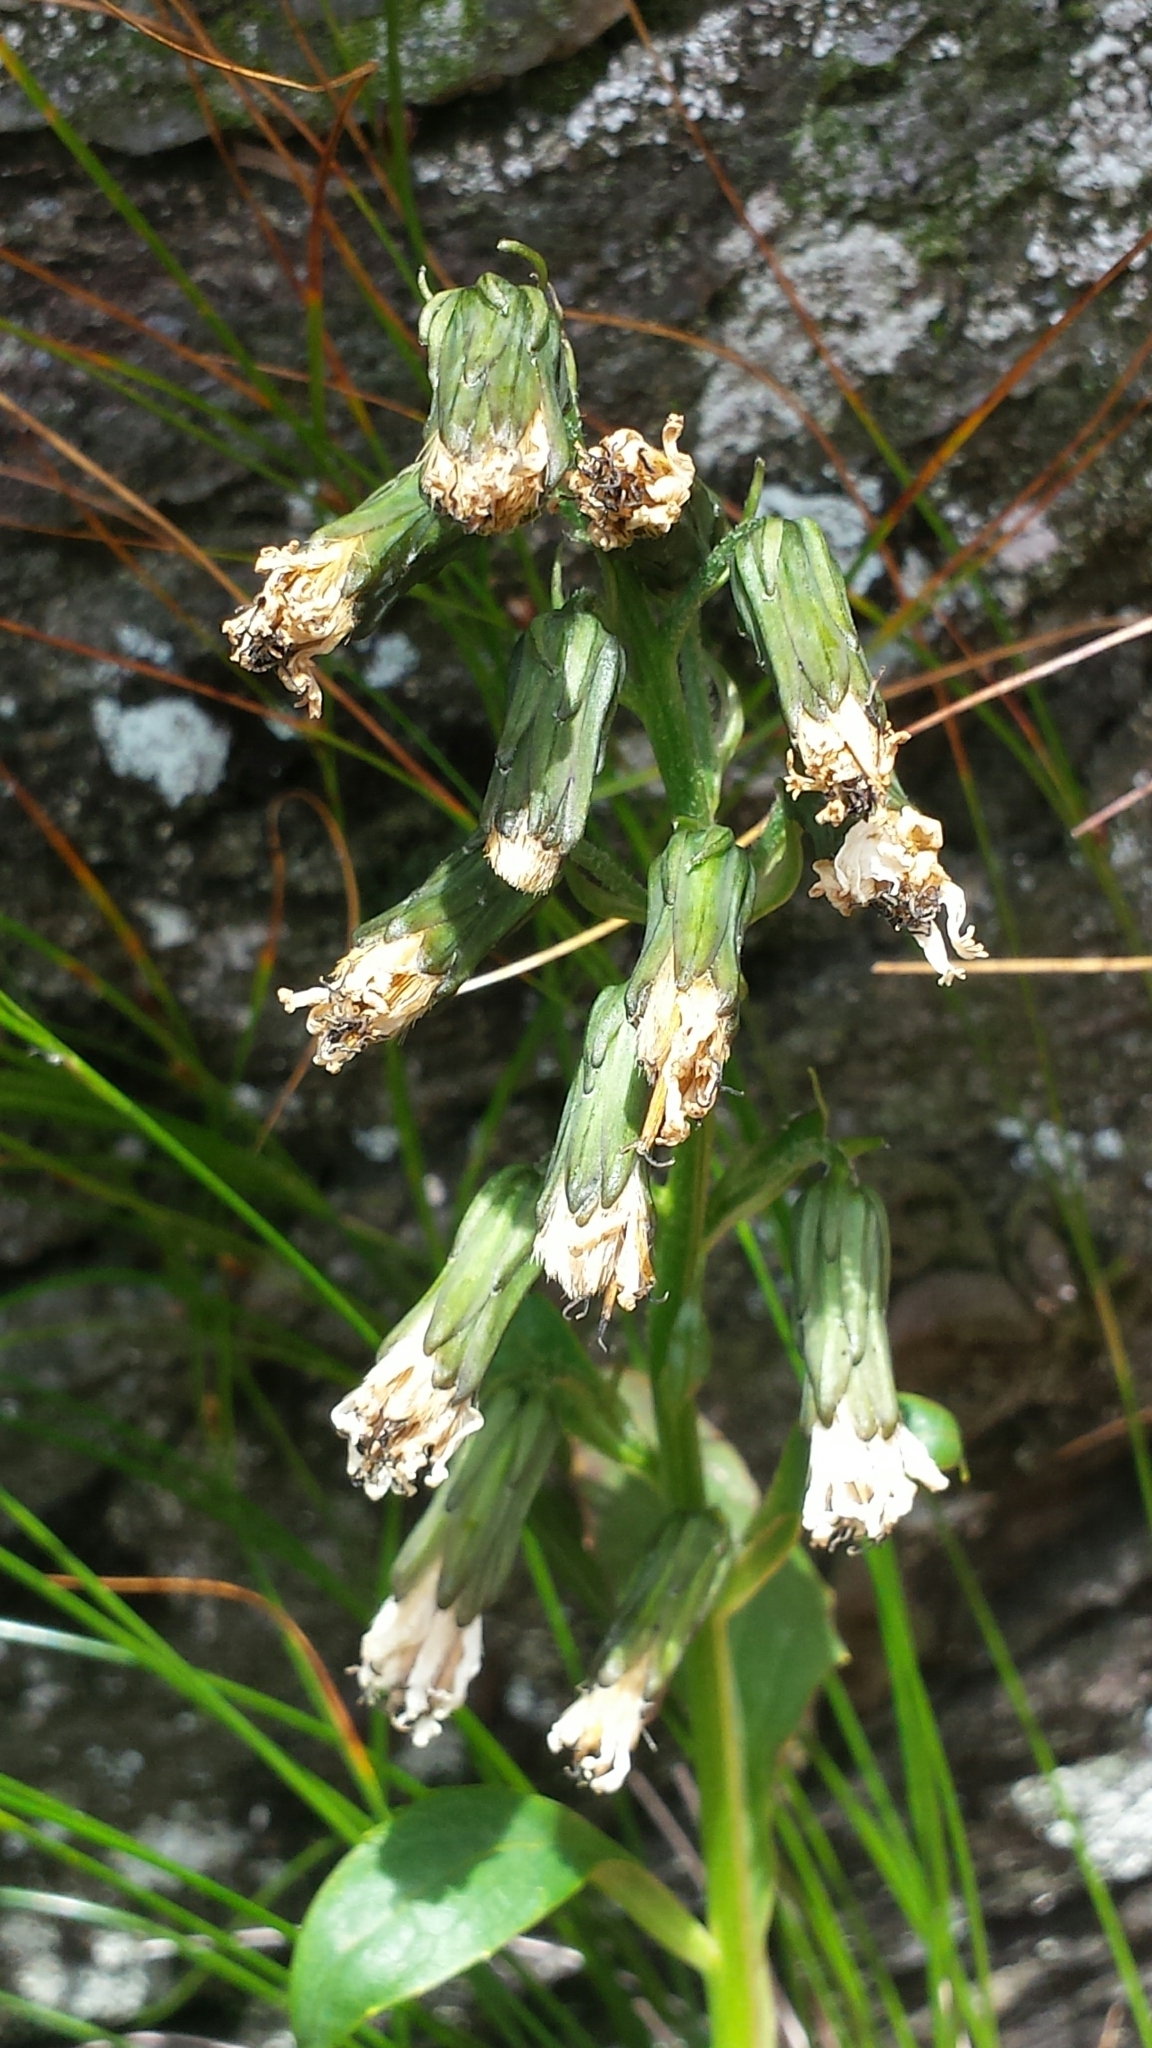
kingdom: Plantae
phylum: Tracheophyta
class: Magnoliopsida
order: Asterales
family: Asteraceae
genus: Nabalus
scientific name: Nabalus boottii
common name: Boot’s rattlesnakeroot
